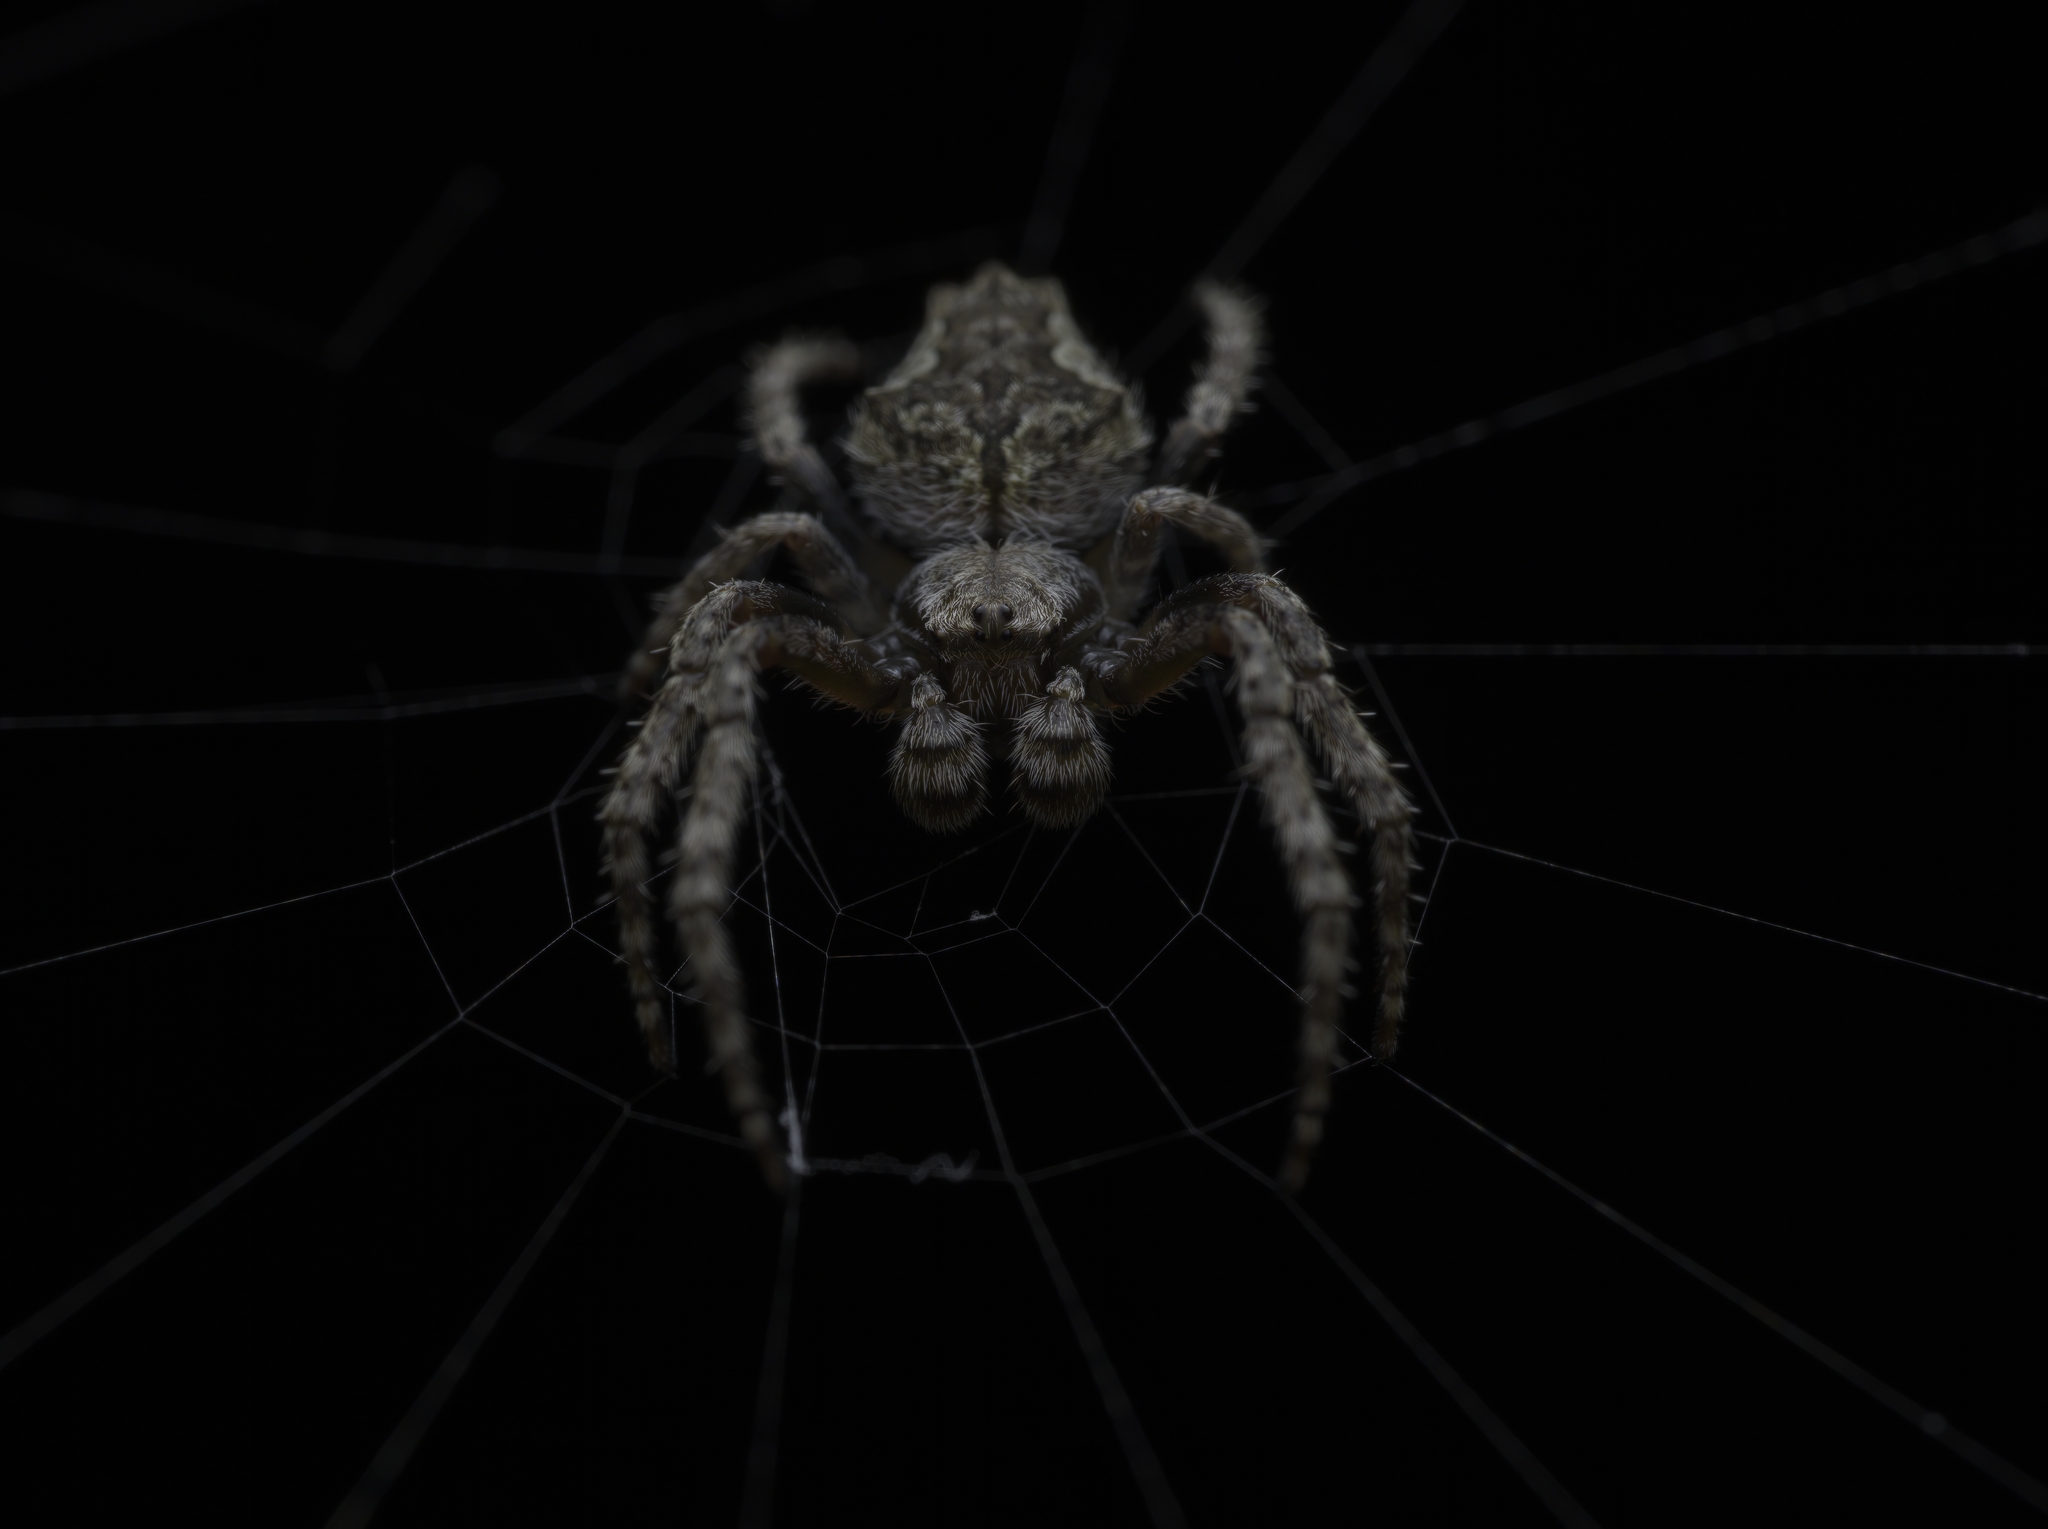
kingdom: Animalia
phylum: Arthropoda
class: Arachnida
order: Araneae
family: Araneidae
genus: Eriophora
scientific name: Eriophora pustulosa
